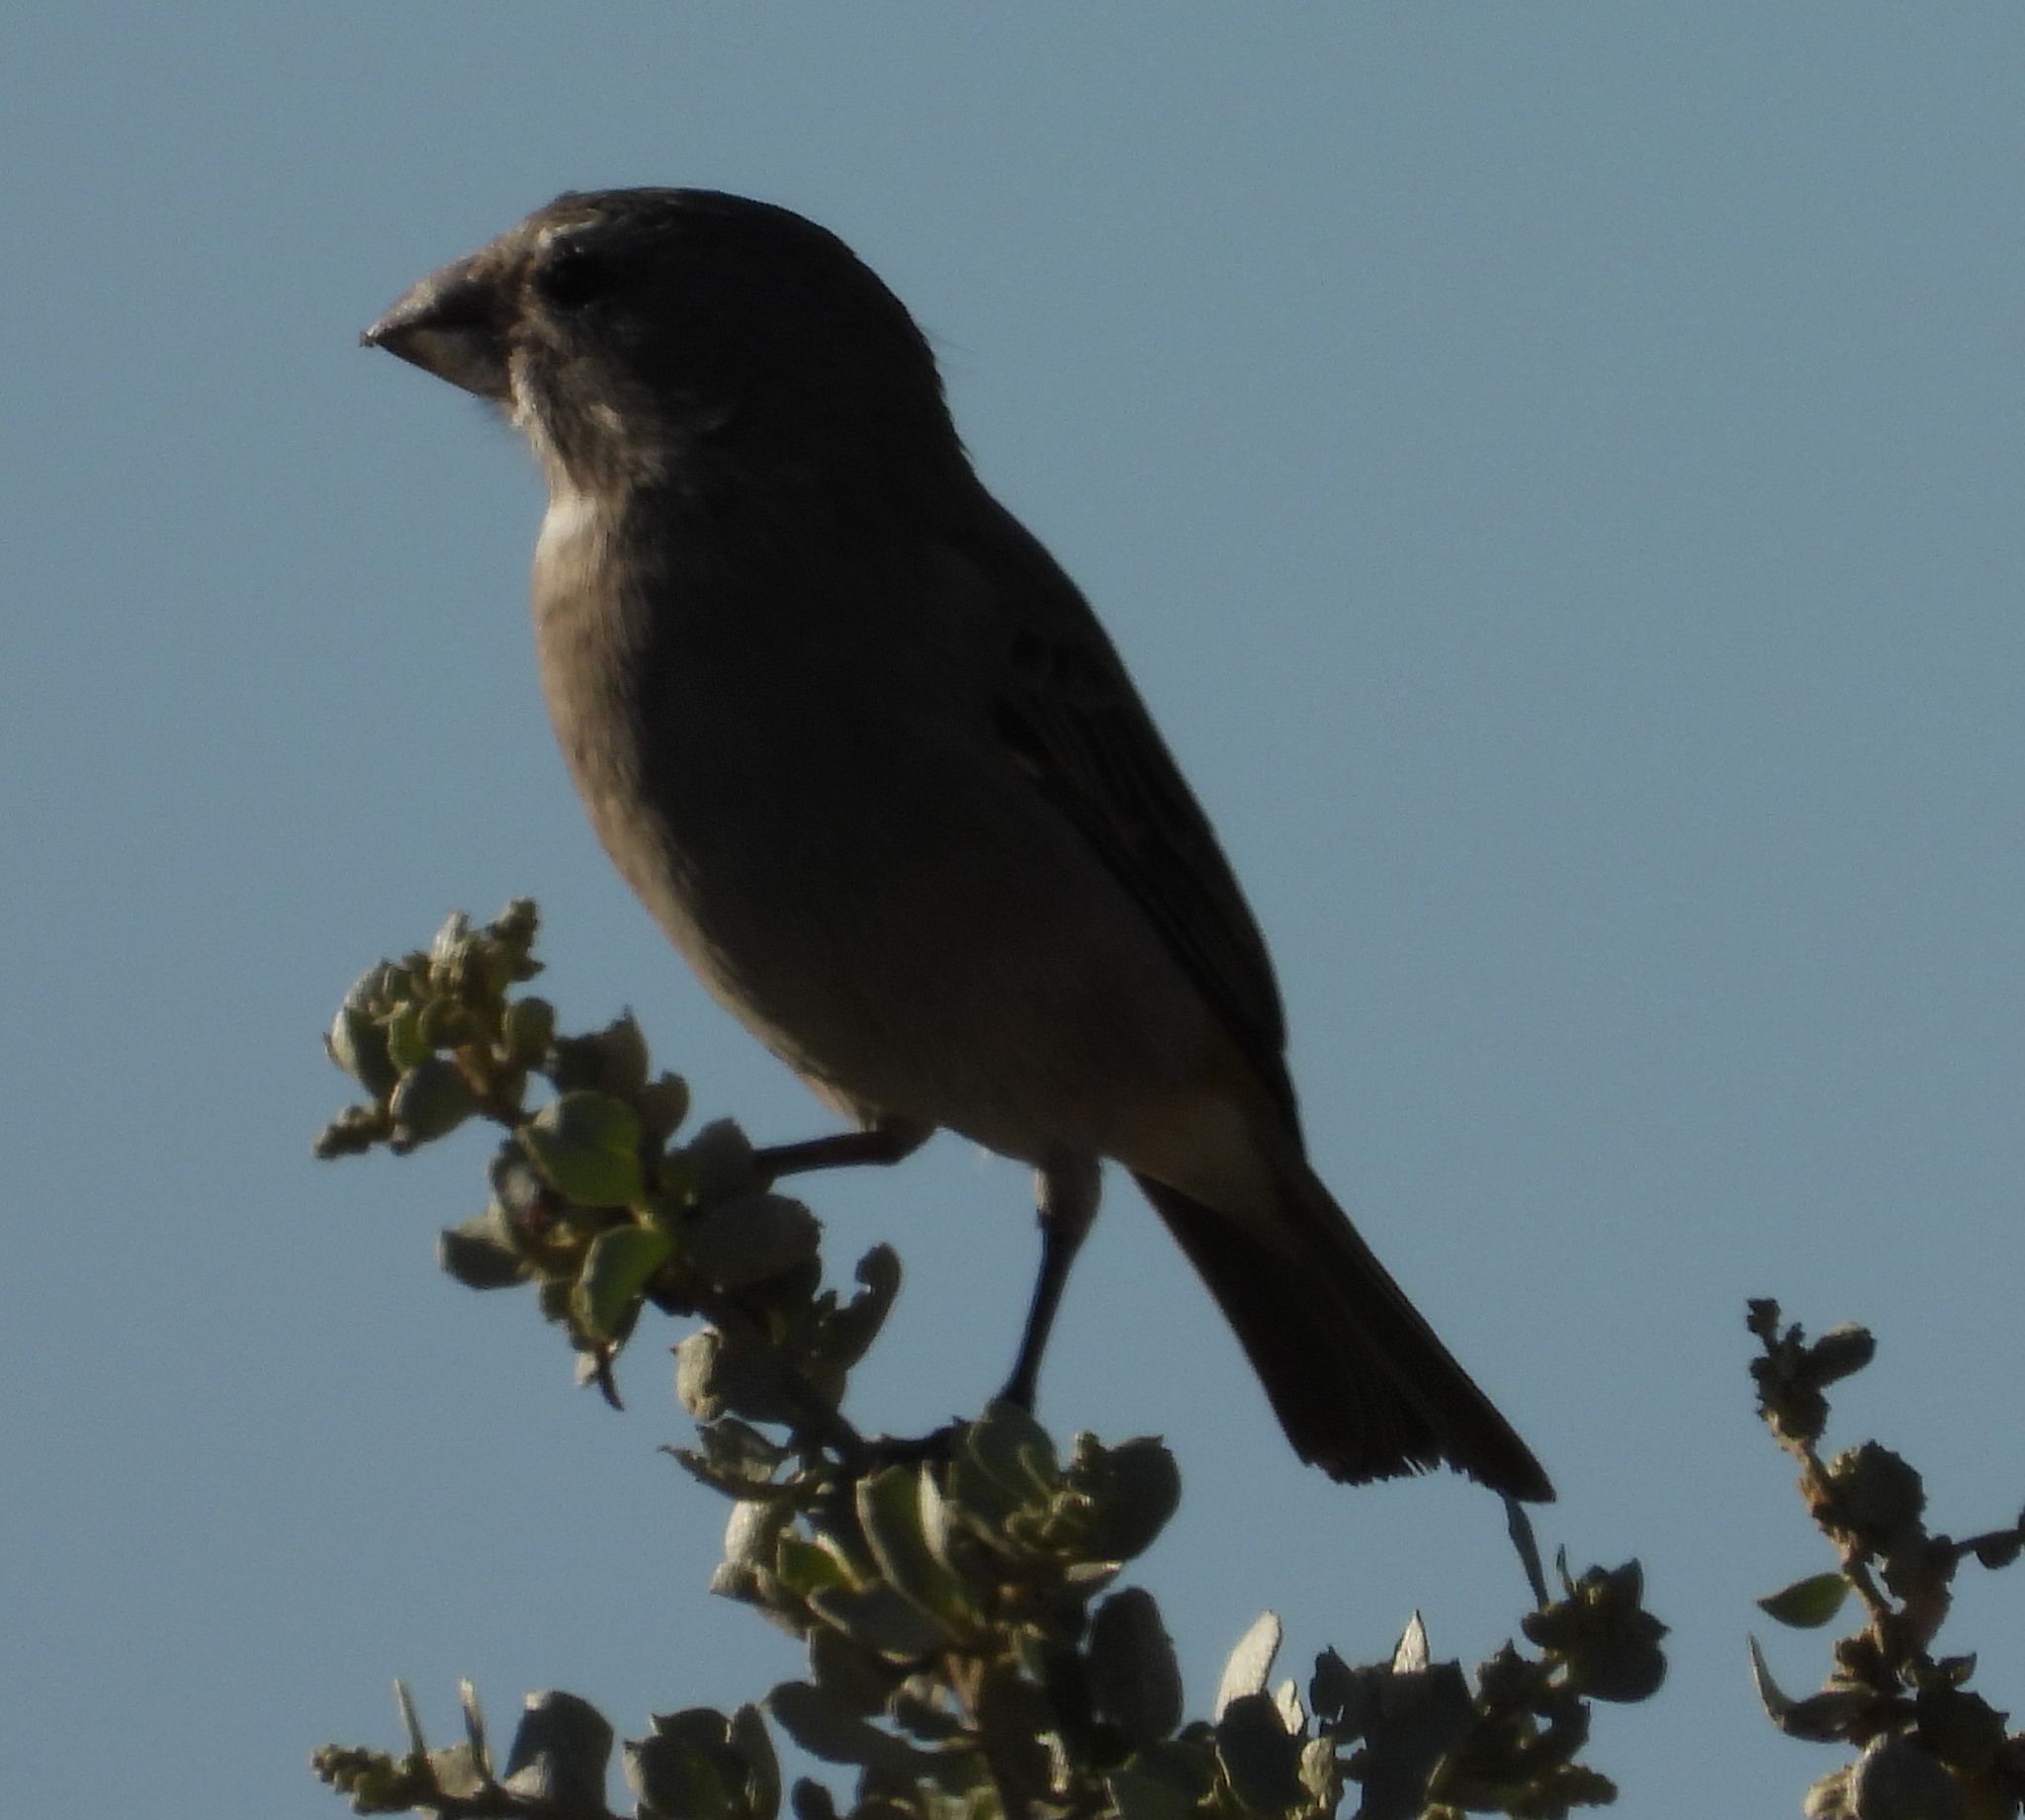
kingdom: Animalia
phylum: Chordata
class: Aves
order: Passeriformes
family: Fringillidae
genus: Crithagra
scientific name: Crithagra albogularis
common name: White-throated canary
